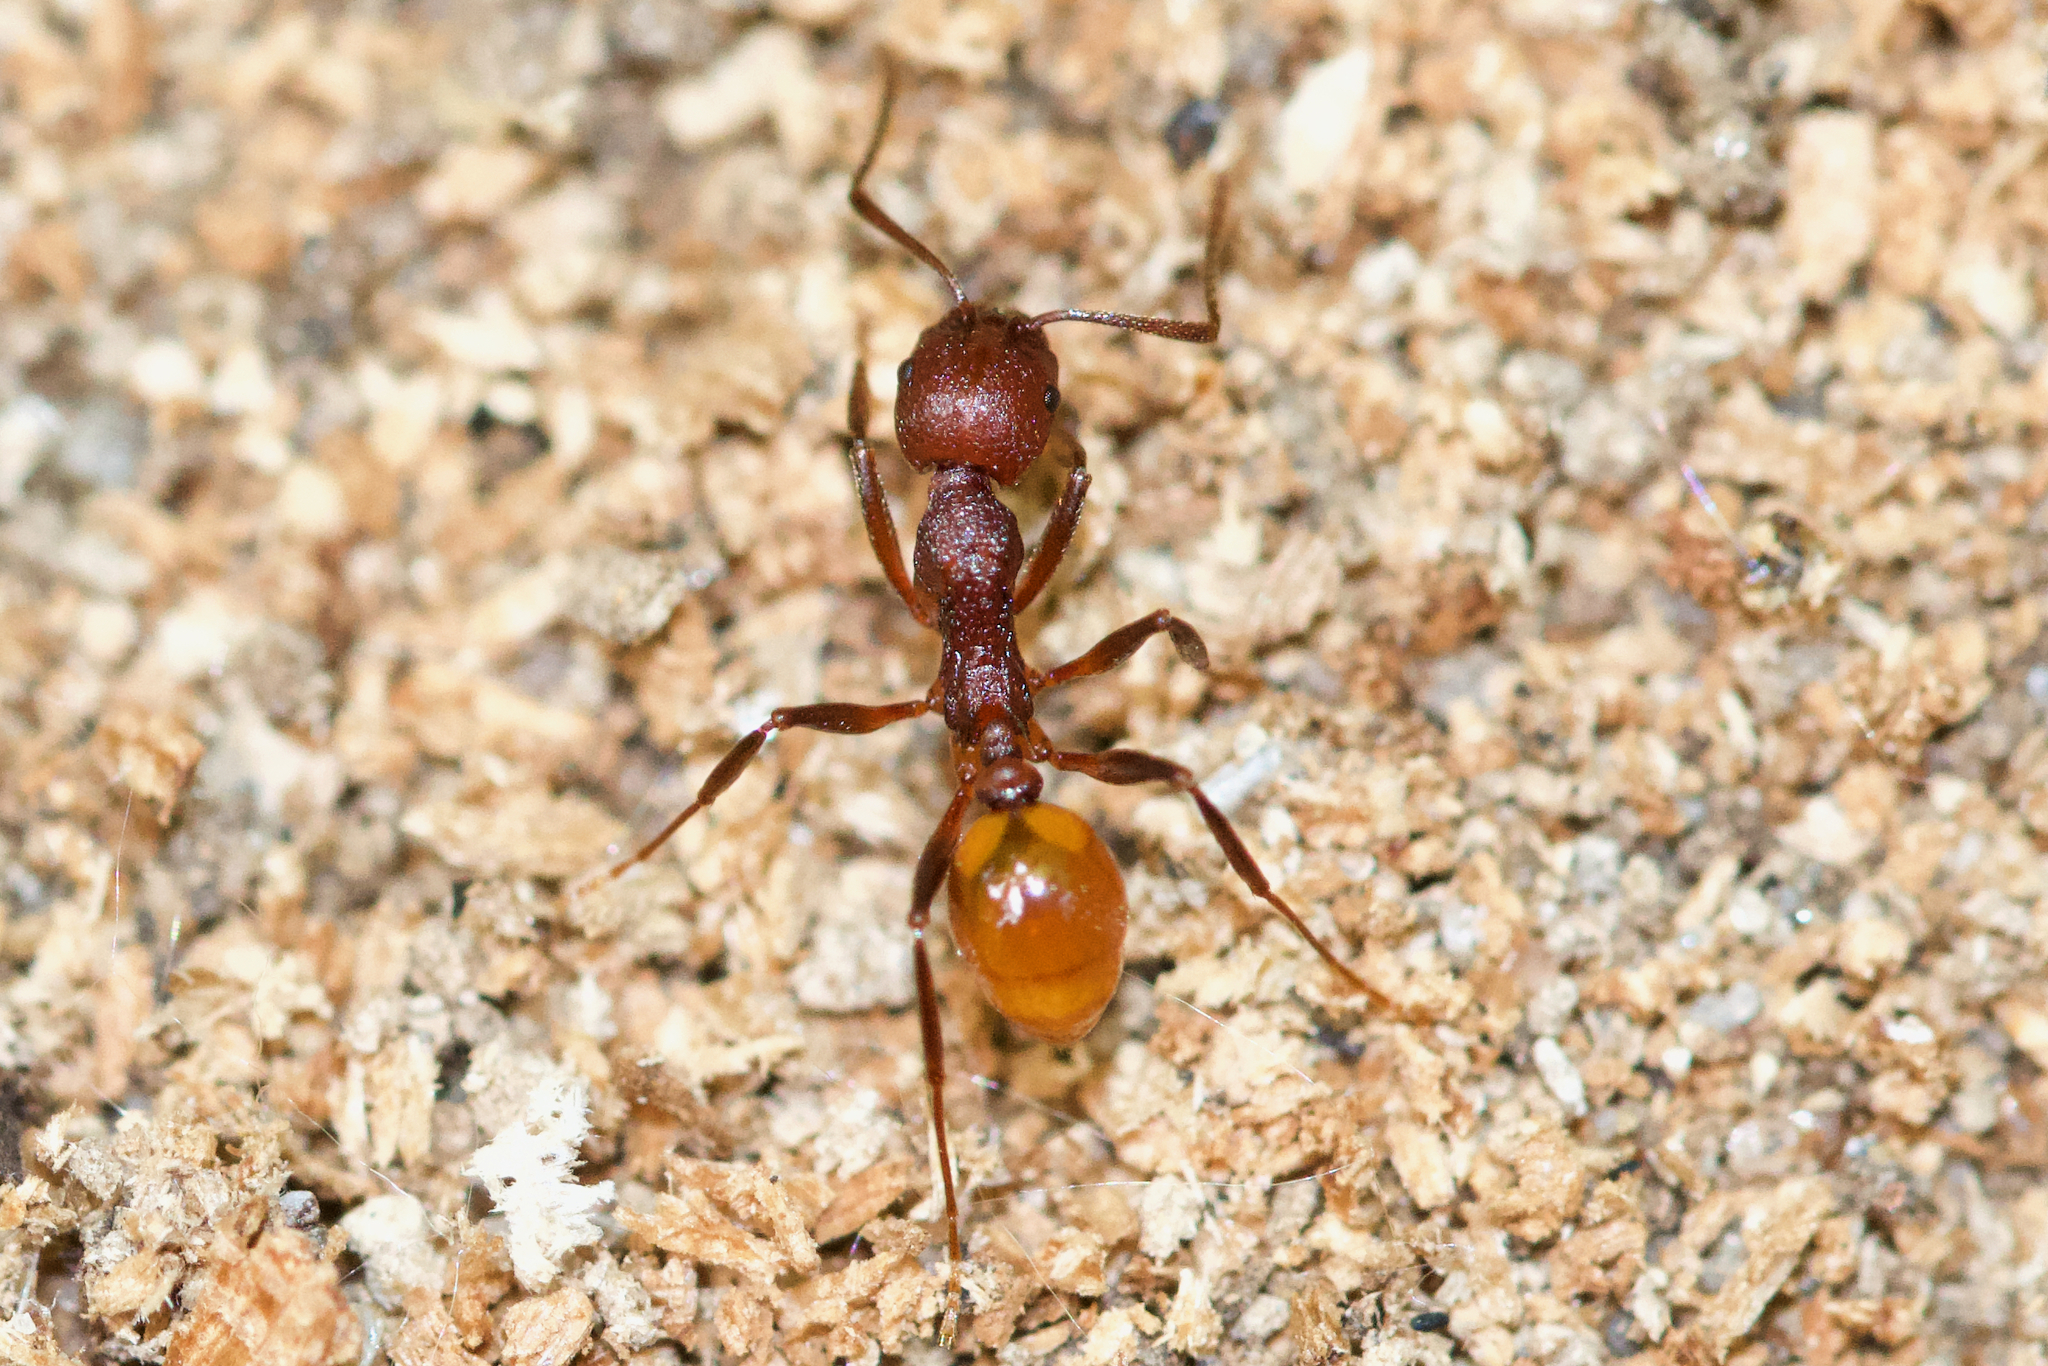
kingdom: Animalia
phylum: Arthropoda
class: Insecta
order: Hymenoptera
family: Formicidae
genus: Aphaenogaster
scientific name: Aphaenogaster tennesseensis
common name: Tennessee thread-waisted ant
